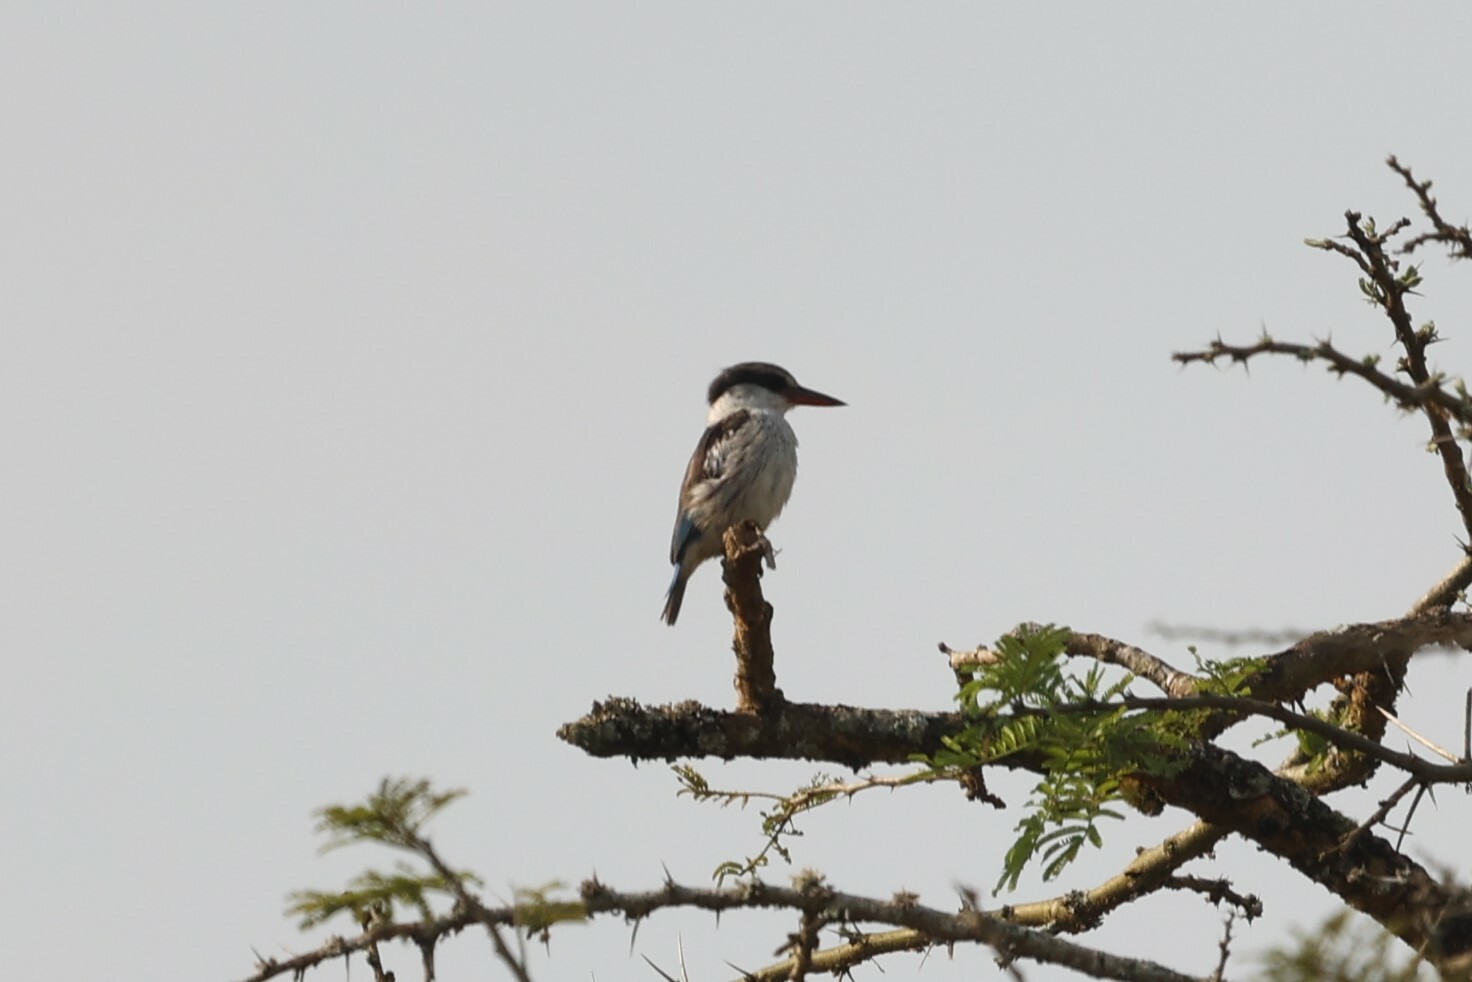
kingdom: Animalia
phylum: Chordata
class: Aves
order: Coraciiformes
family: Alcedinidae
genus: Halcyon
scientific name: Halcyon chelicuti
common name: Striped kingfisher
